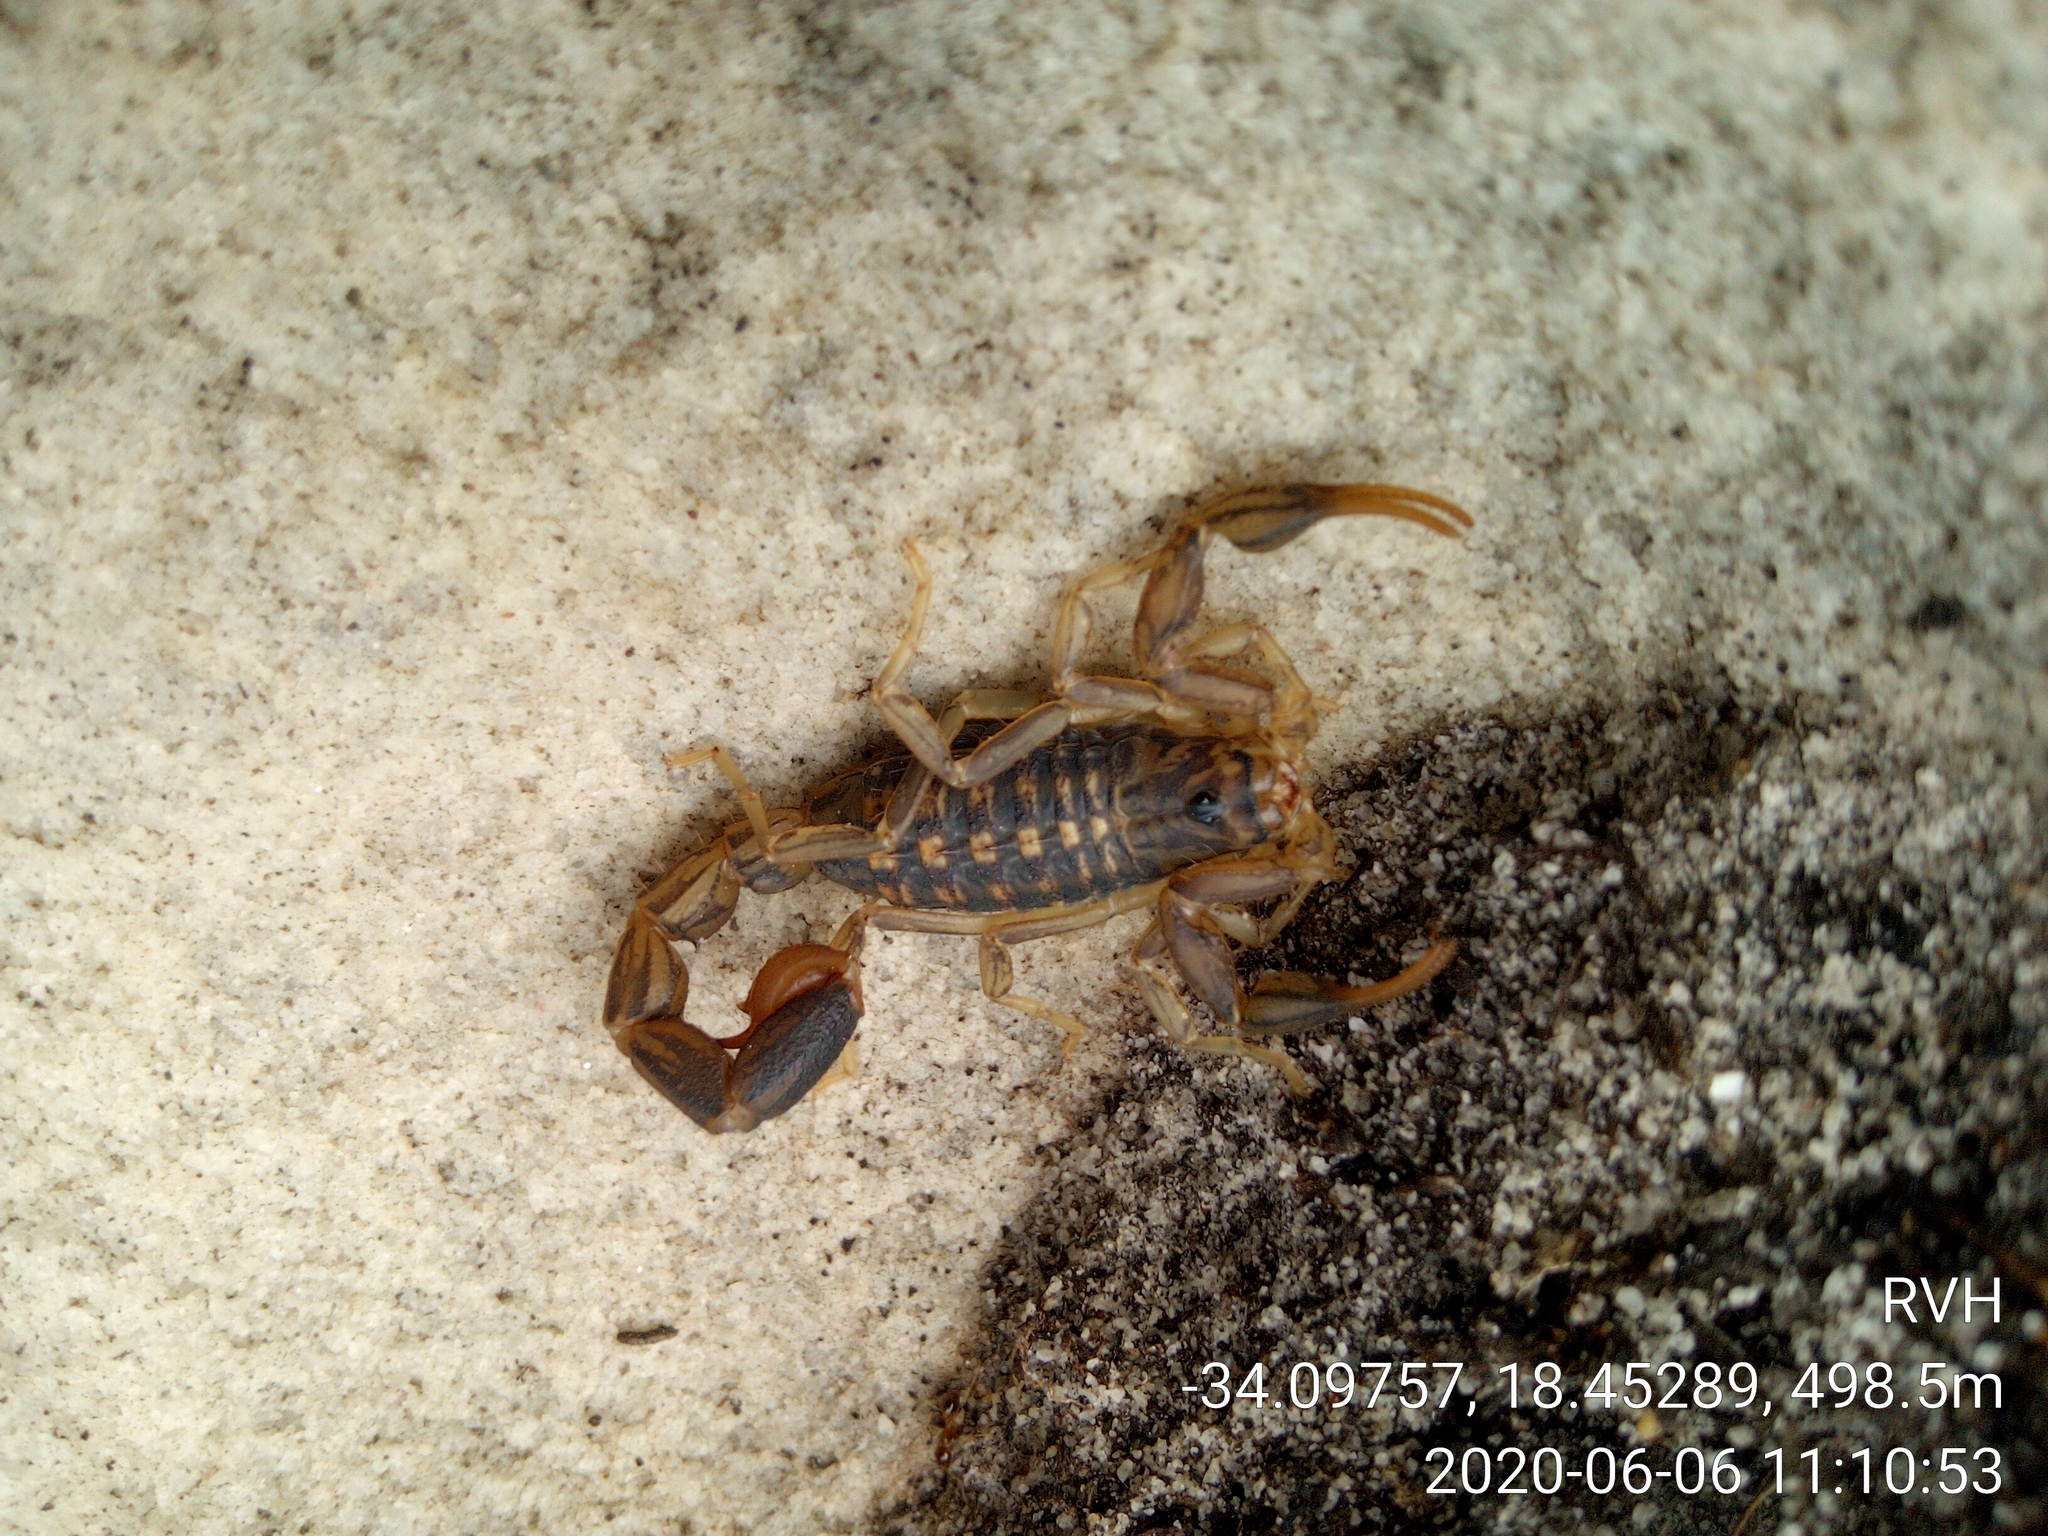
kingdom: Animalia
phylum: Arthropoda
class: Arachnida
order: Scorpiones
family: Buthidae
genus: Uroplectes
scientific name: Uroplectes lineatus
